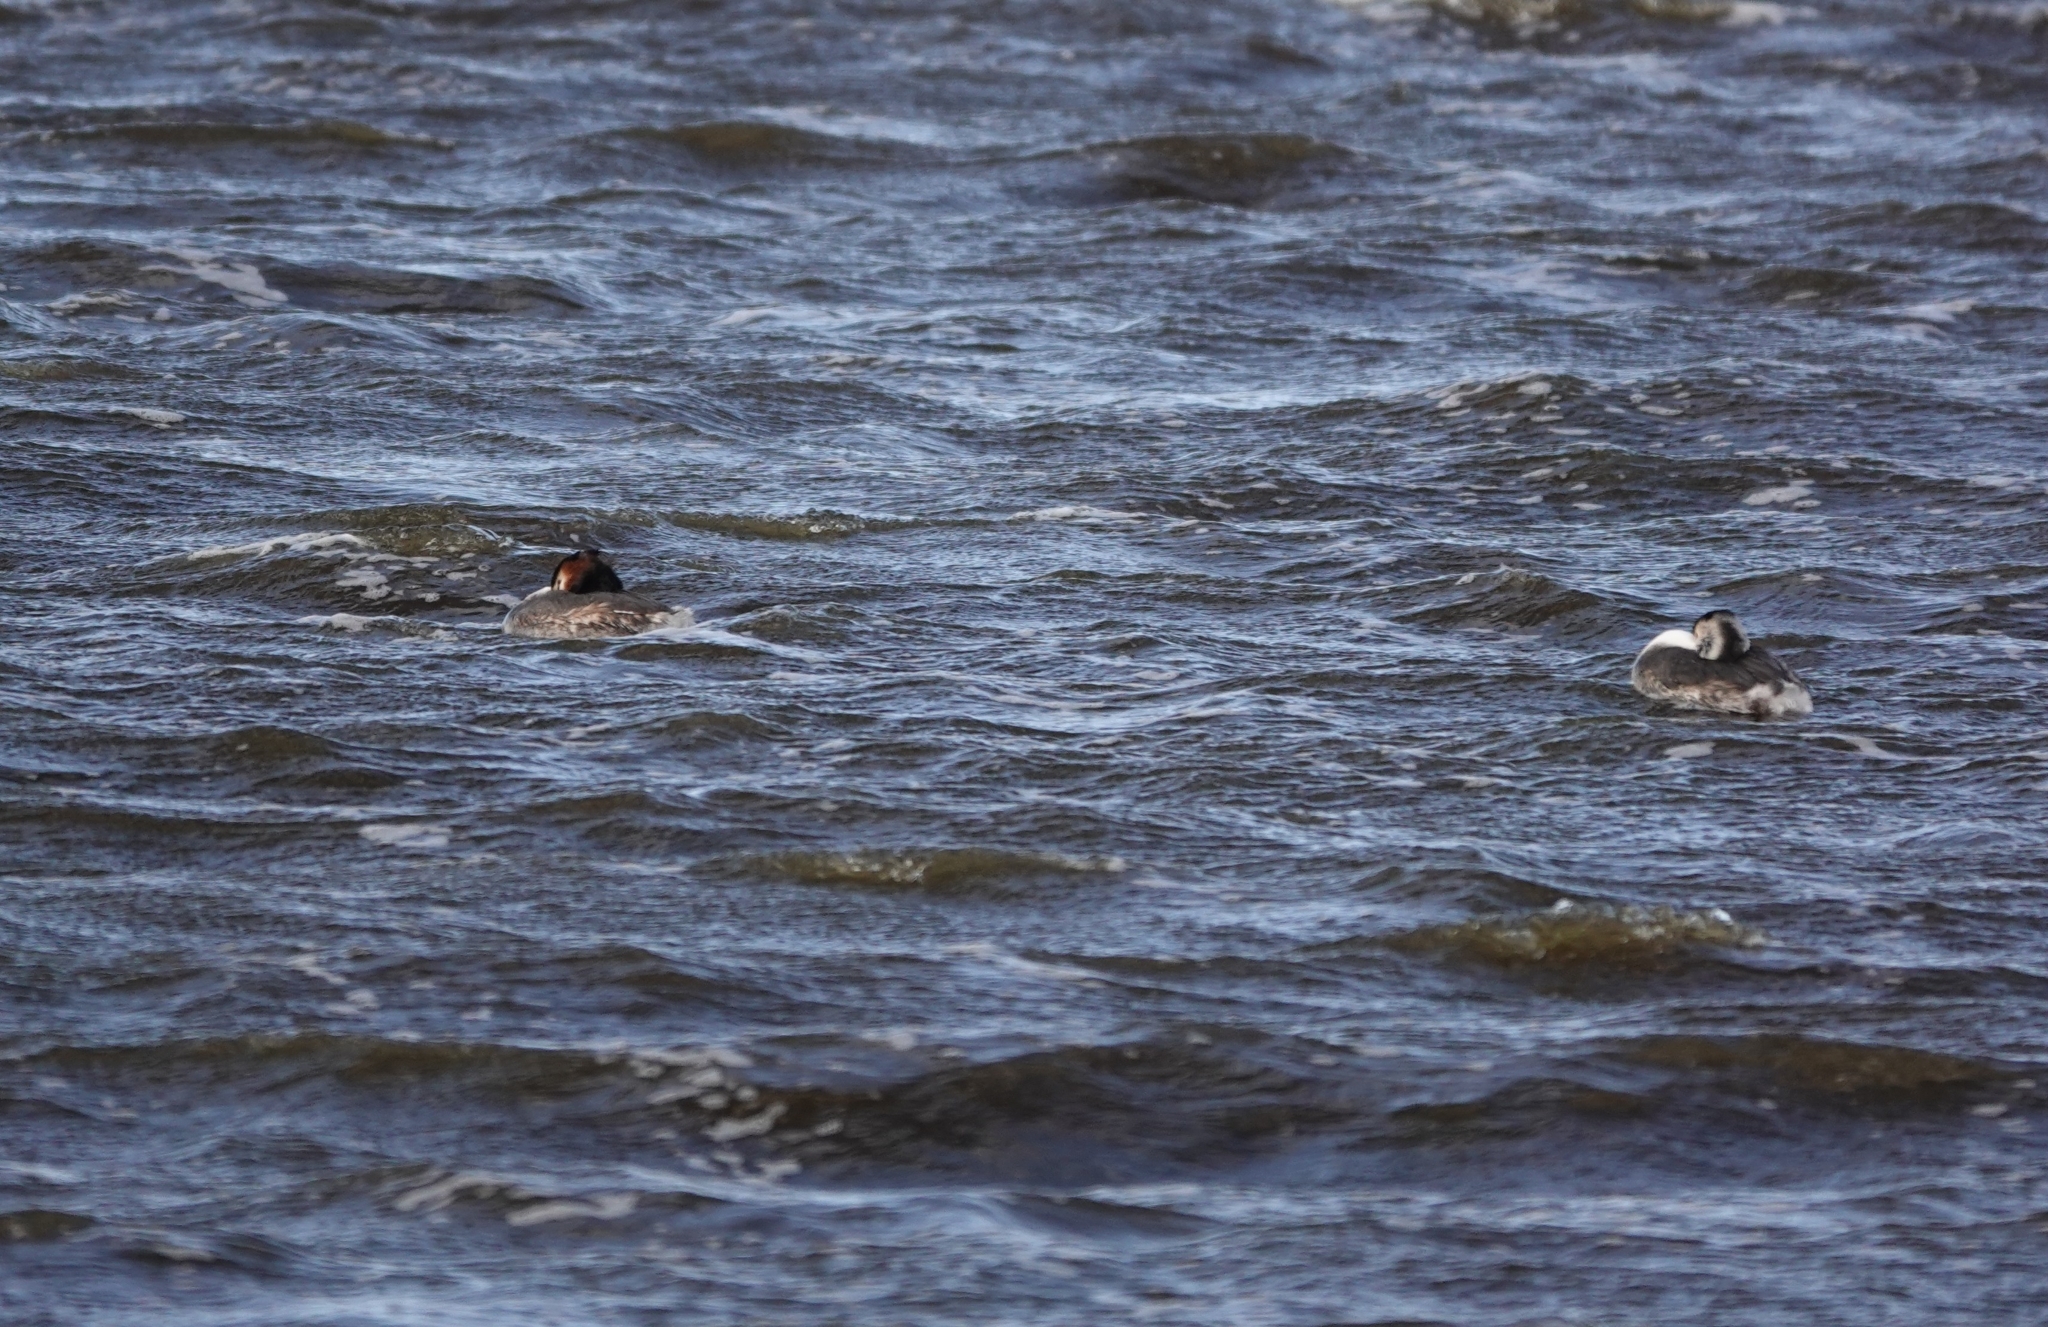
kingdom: Animalia
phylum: Chordata
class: Aves
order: Podicipediformes
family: Podicipedidae
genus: Podiceps
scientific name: Podiceps cristatus
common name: Great crested grebe
